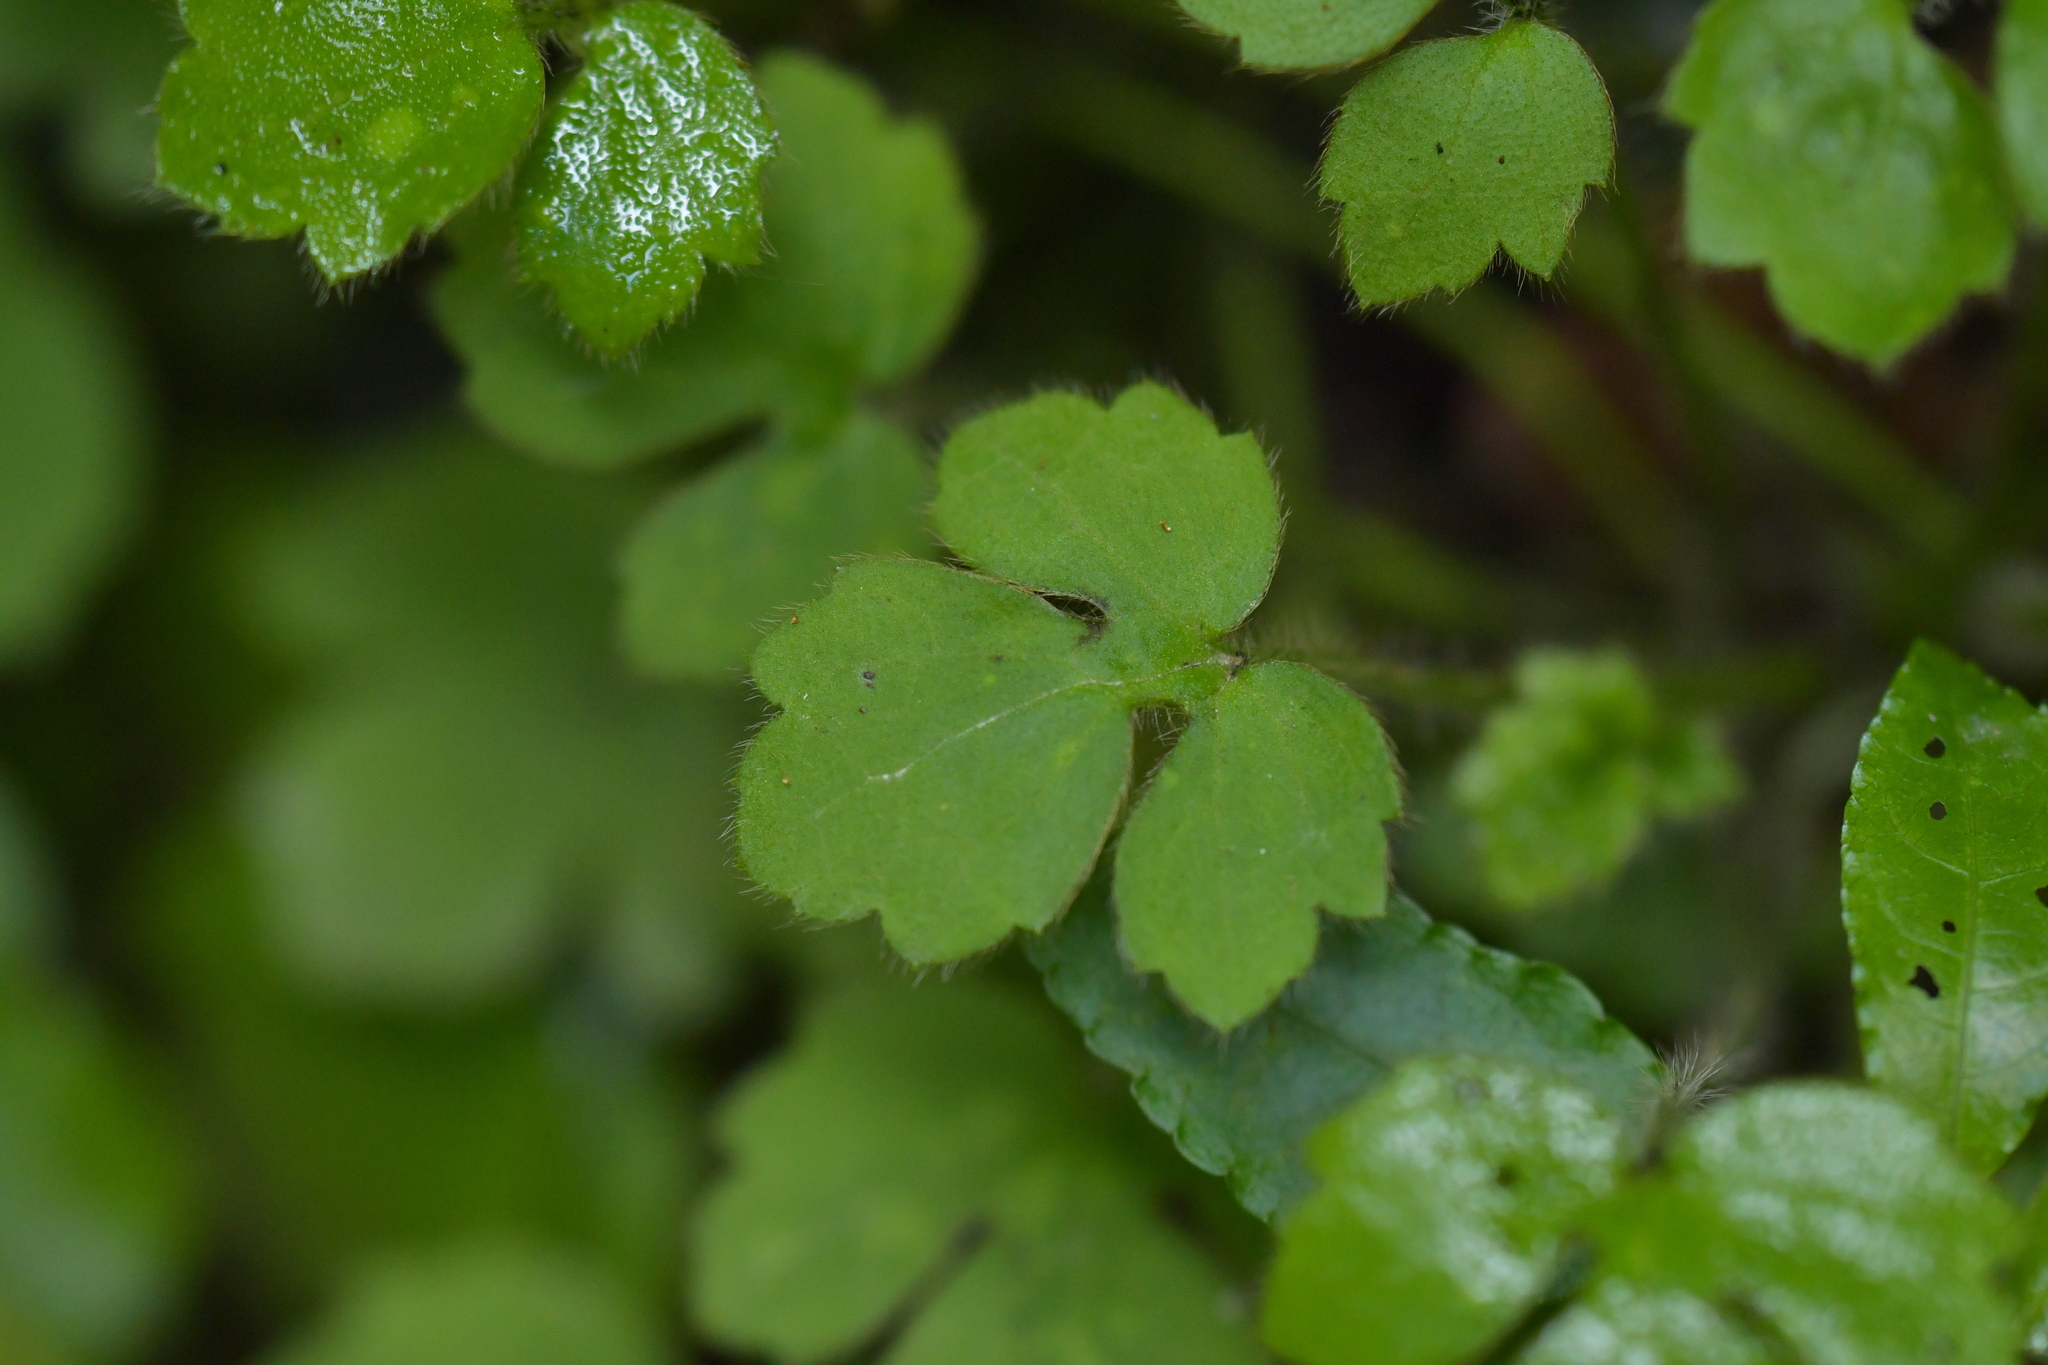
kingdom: Plantae
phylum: Tracheophyta
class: Magnoliopsida
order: Ranunculales
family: Ranunculaceae
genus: Ranunculus
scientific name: Ranunculus reflexus
